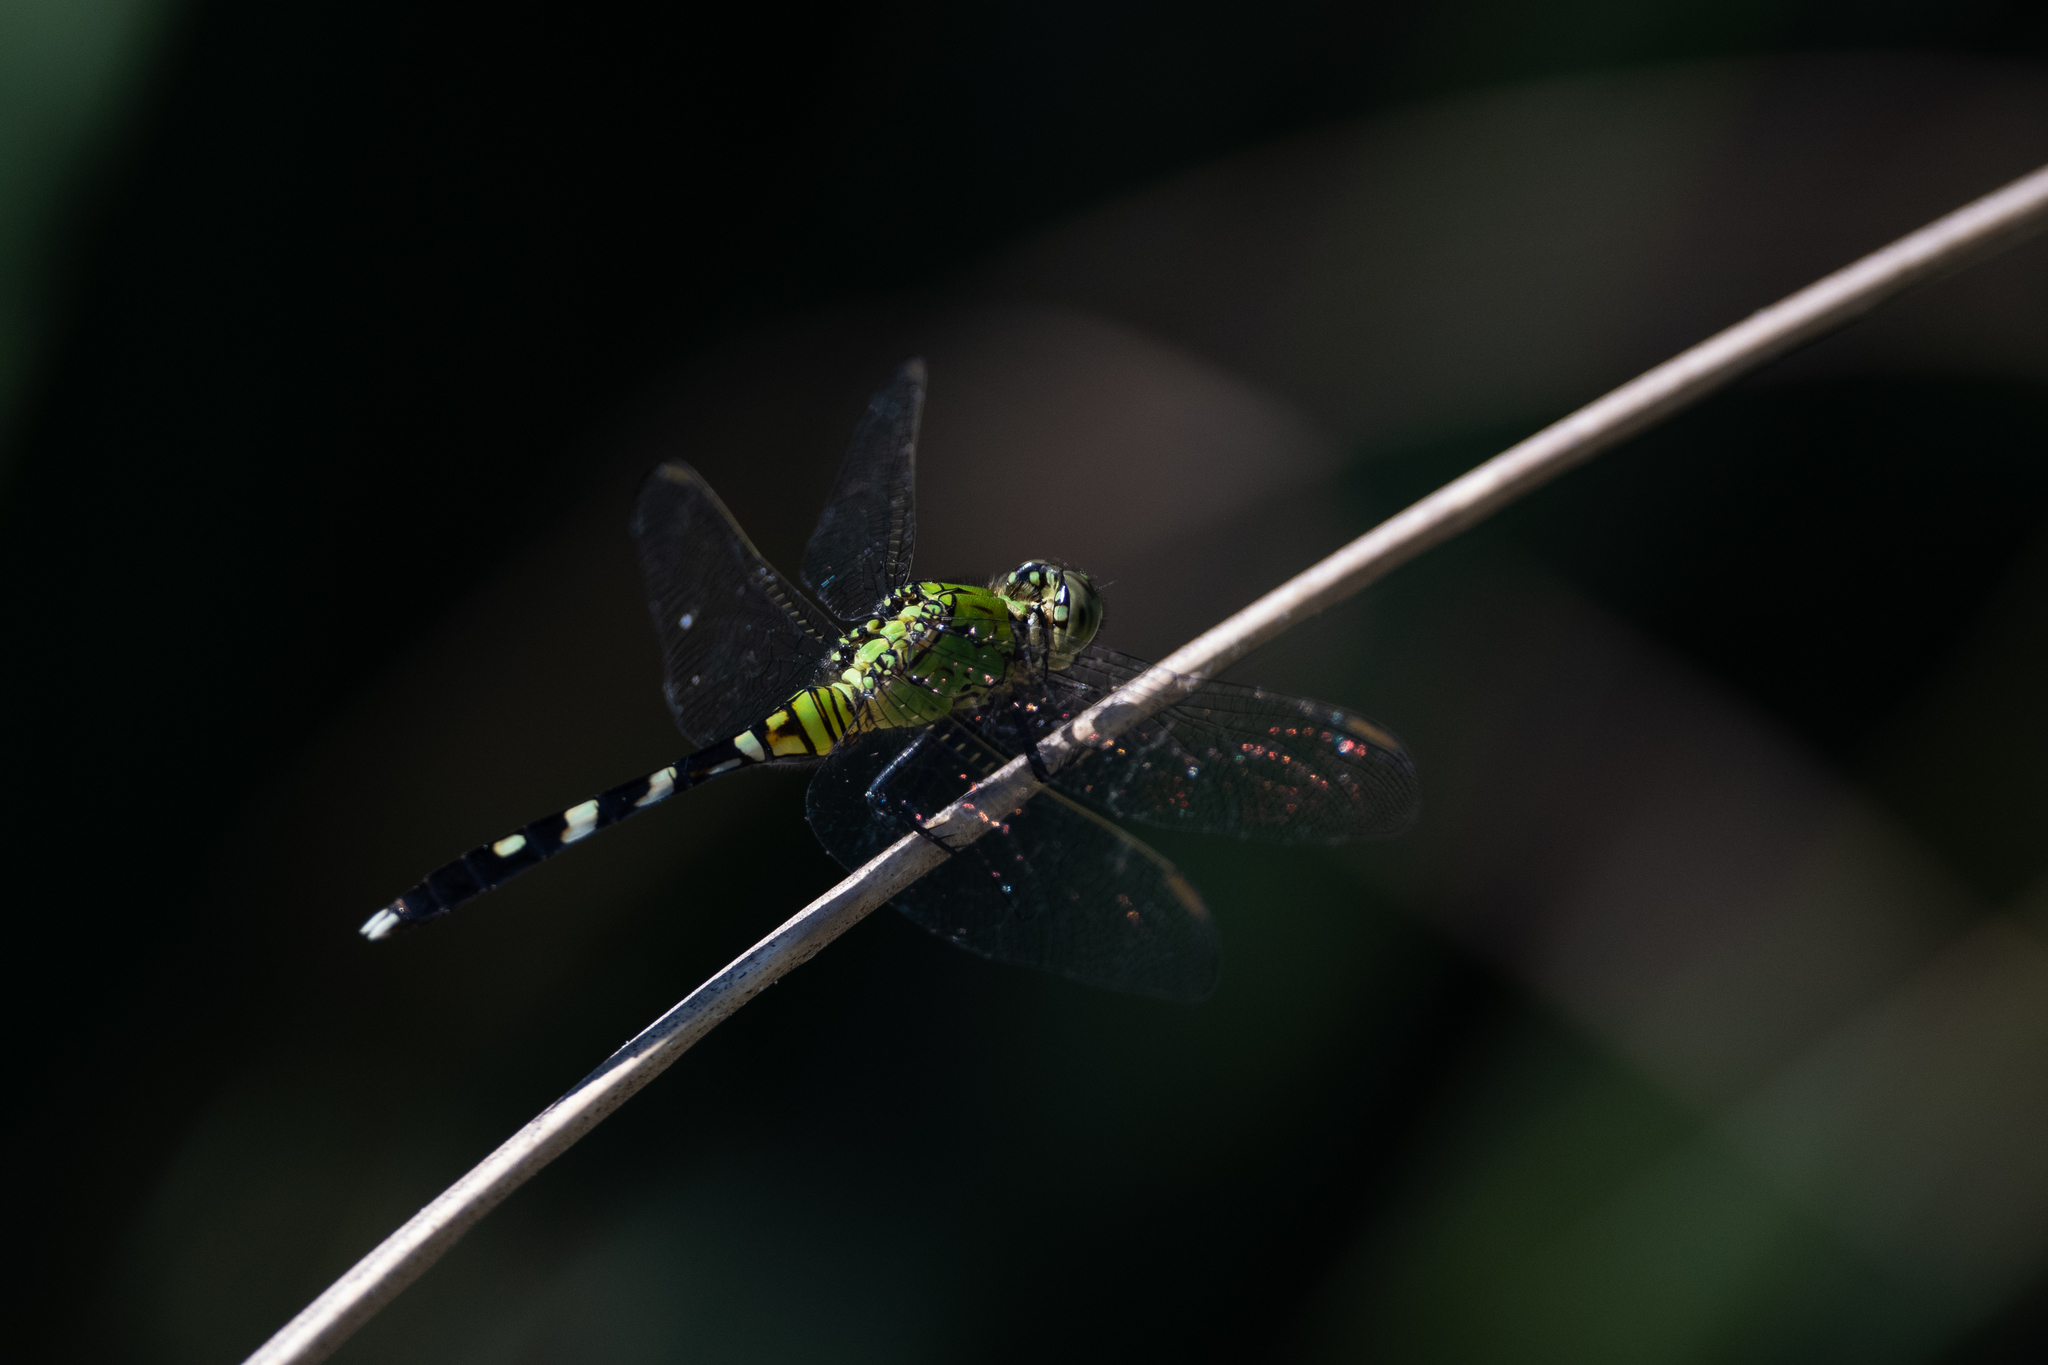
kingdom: Animalia
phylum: Arthropoda
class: Insecta
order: Odonata
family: Libellulidae
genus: Erythemis
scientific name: Erythemis simplicicollis
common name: Eastern pondhawk
